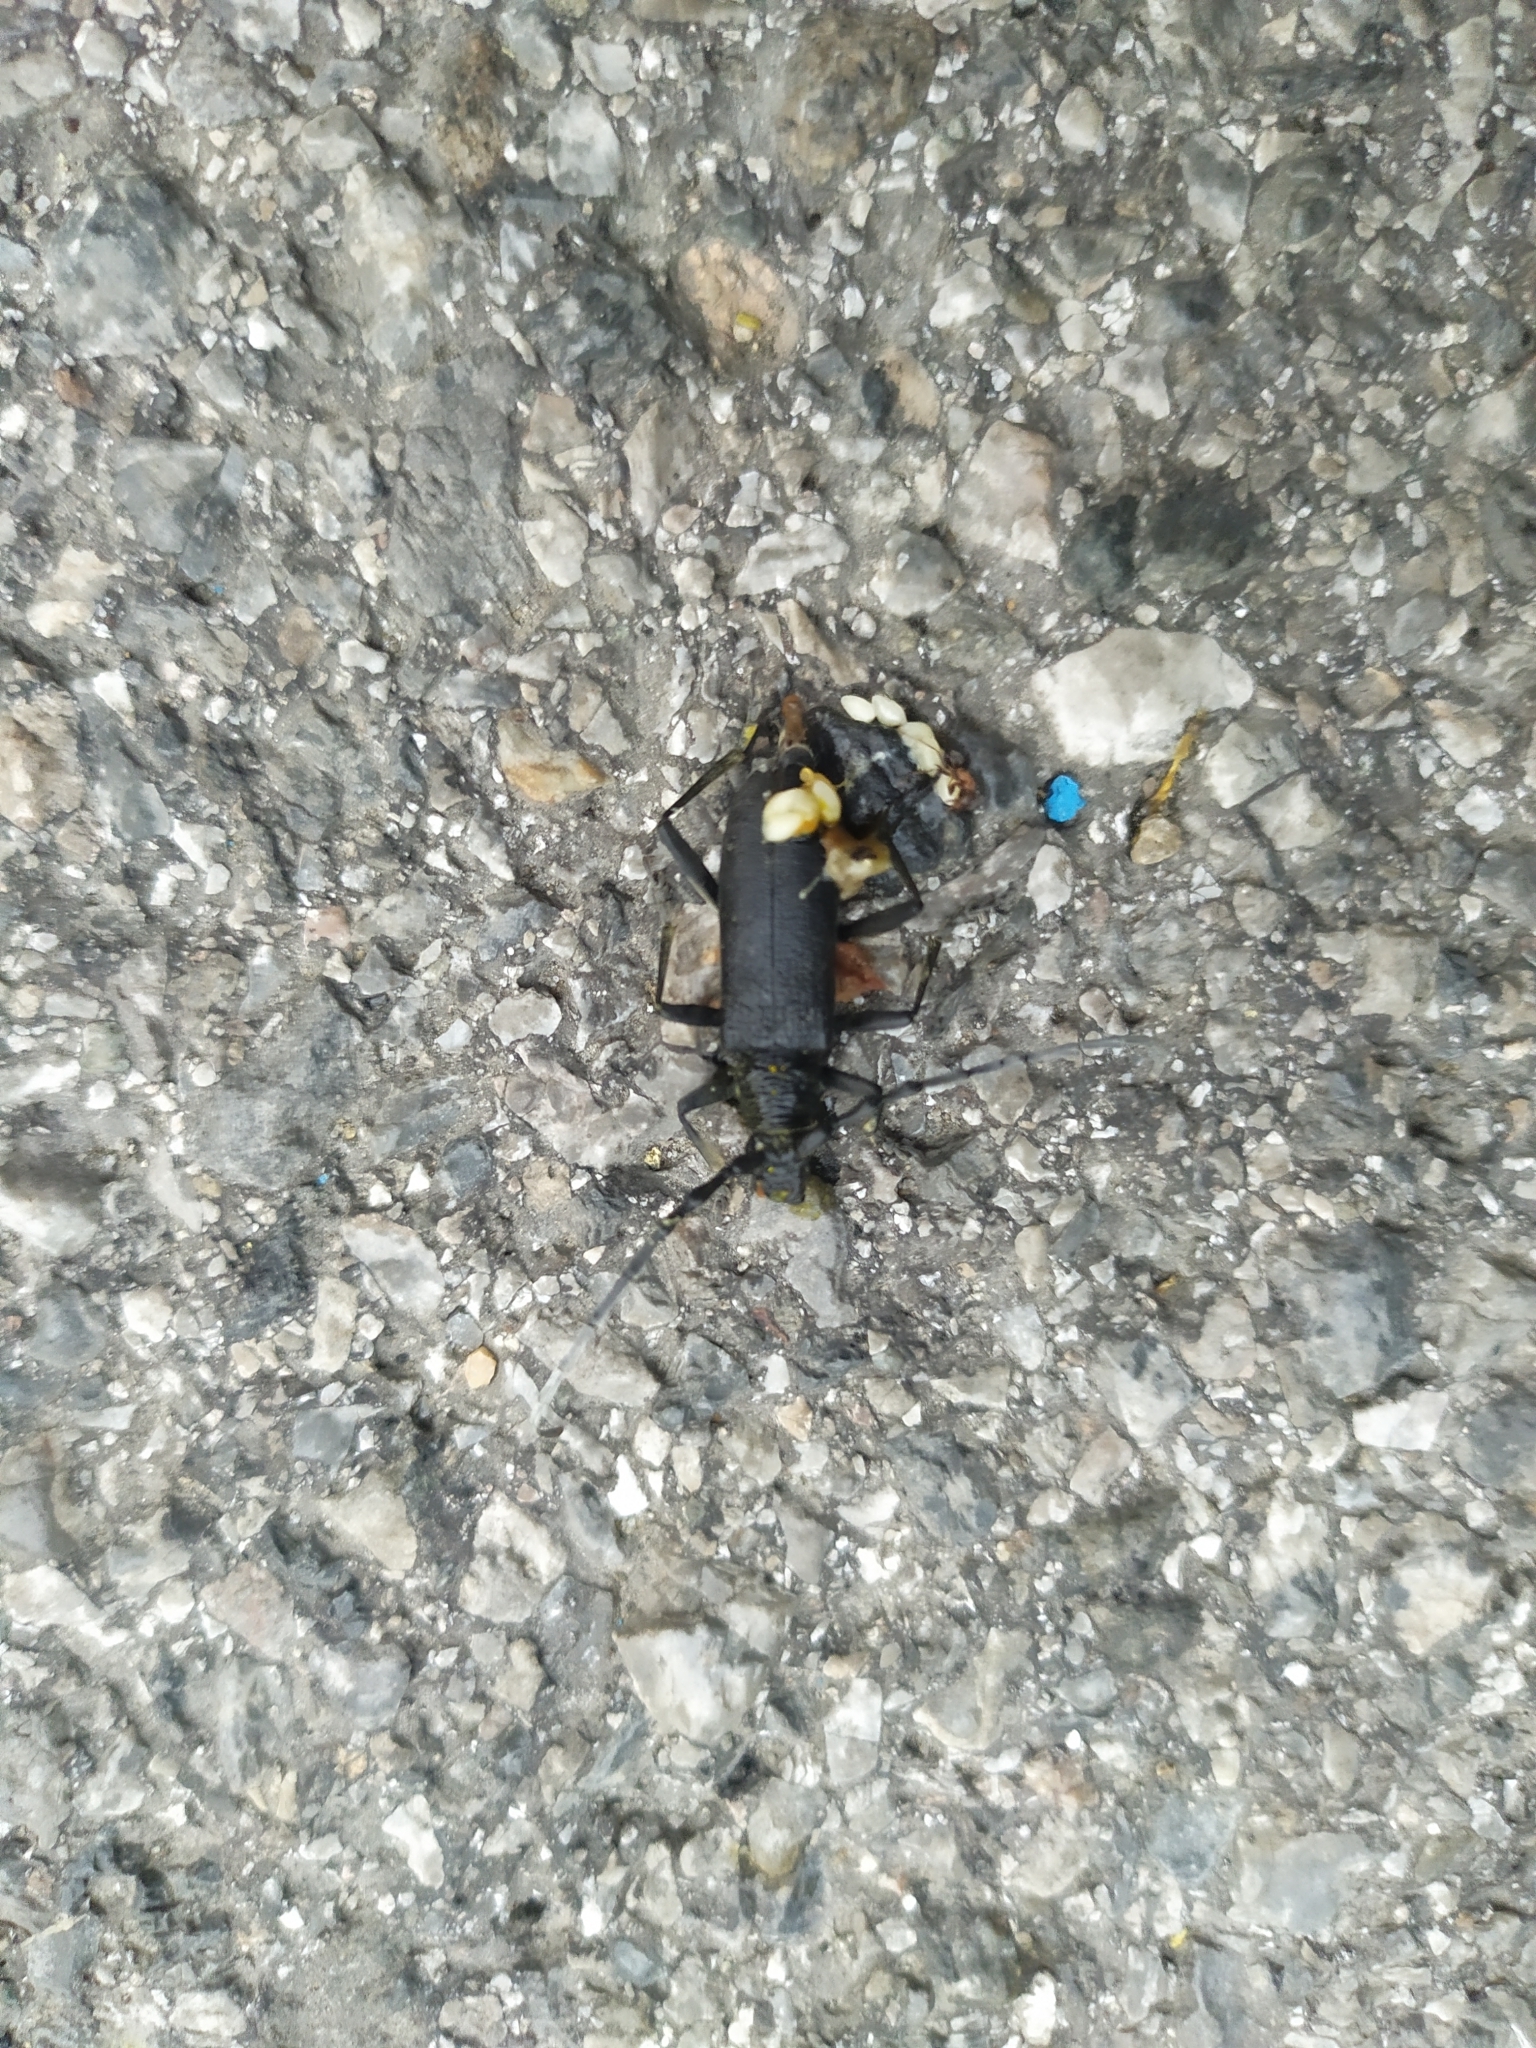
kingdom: Animalia
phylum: Arthropoda
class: Insecta
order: Coleoptera
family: Cerambycidae
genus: Cerambyx
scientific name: Cerambyx scopolii
